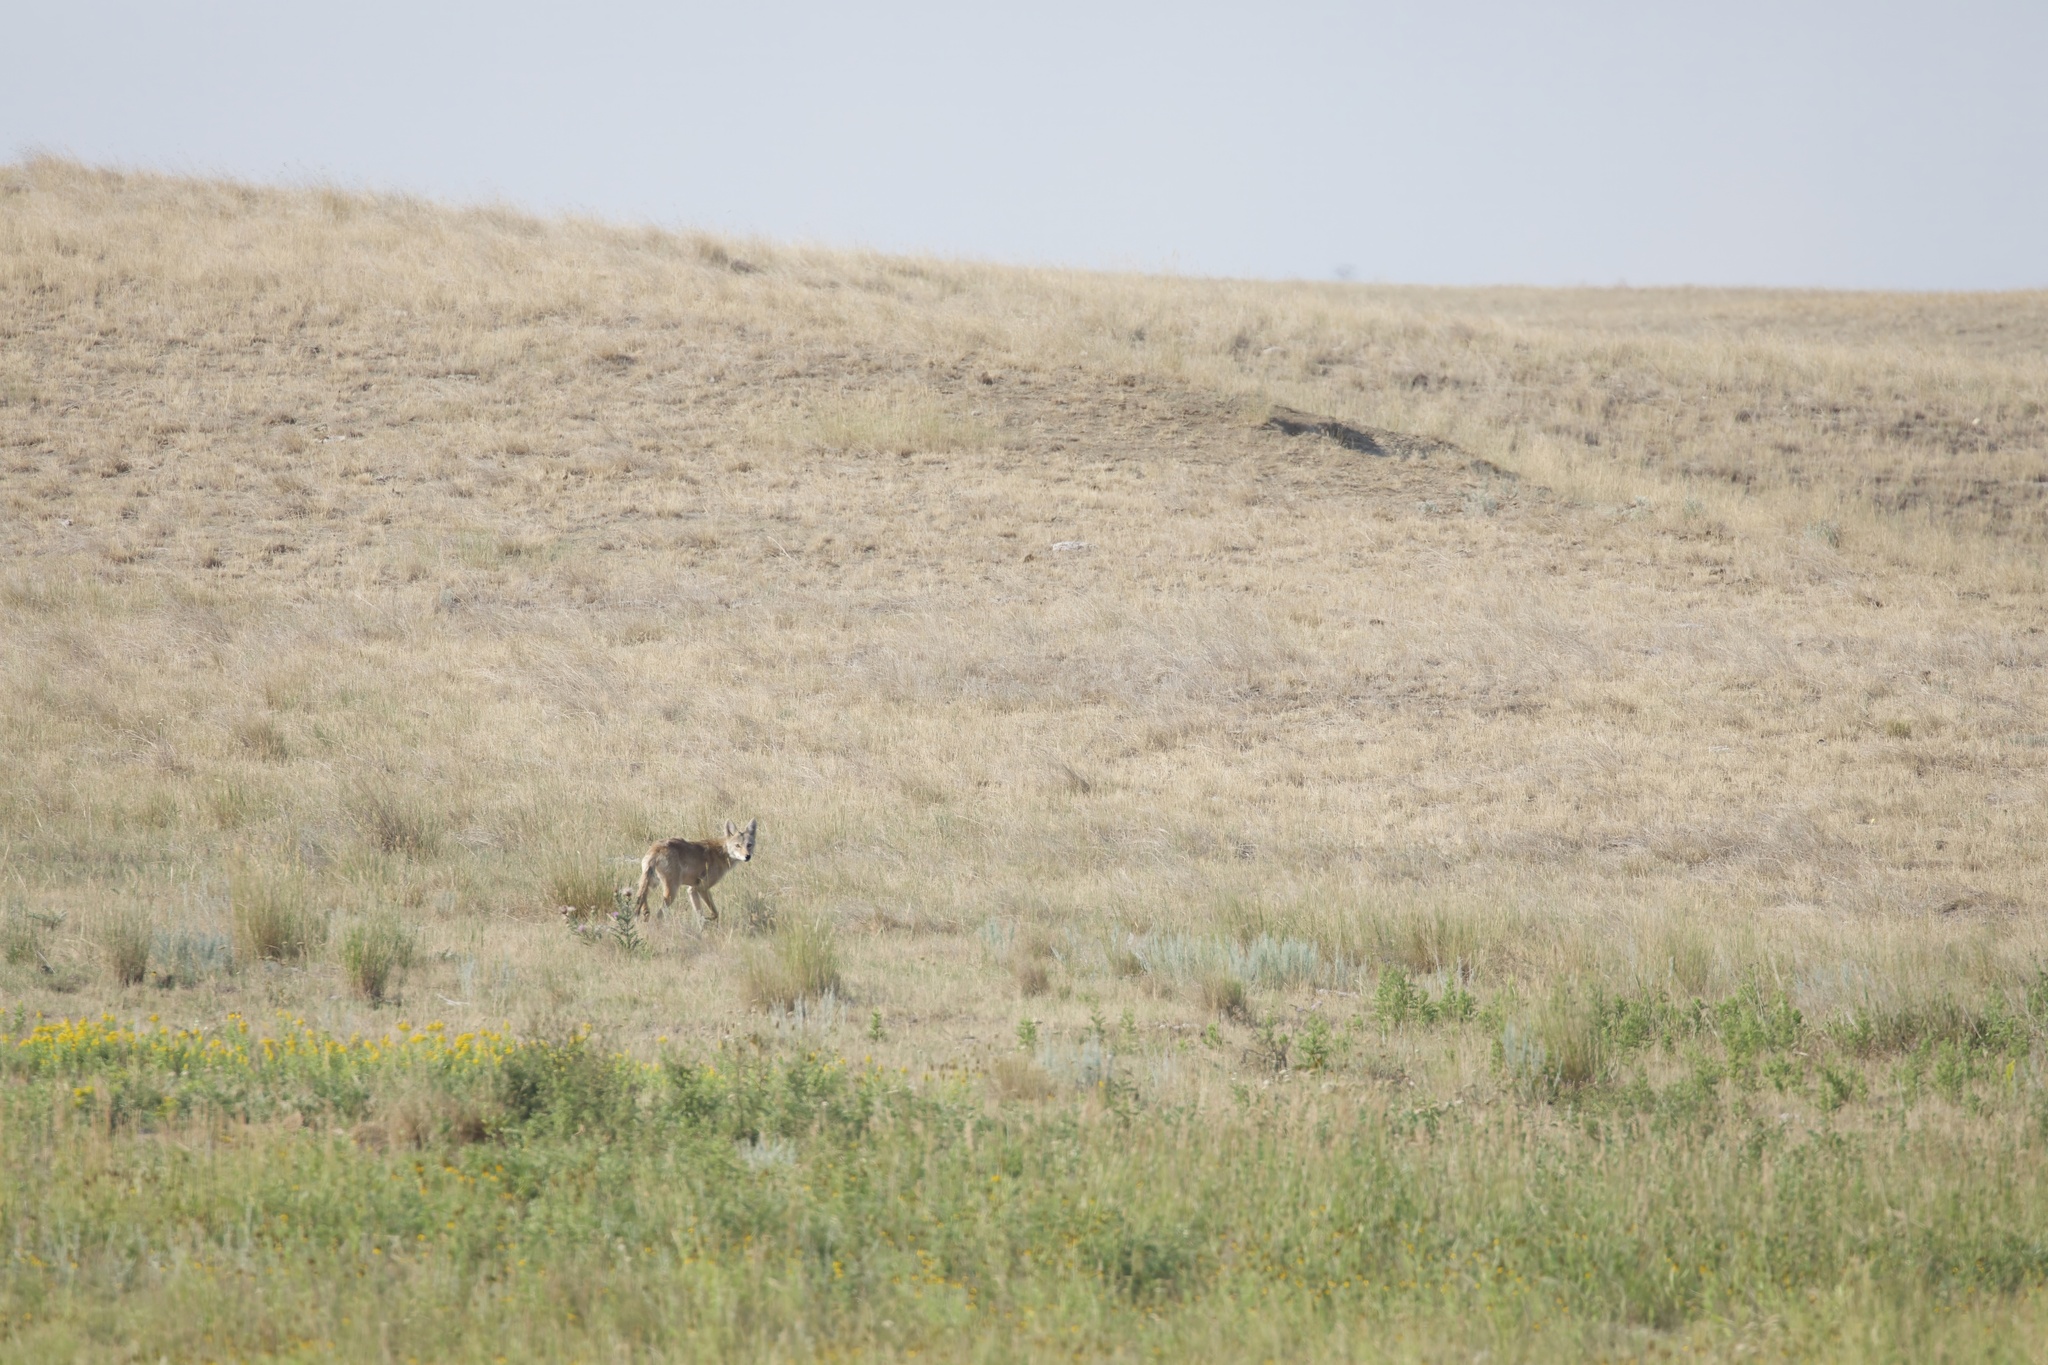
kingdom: Animalia
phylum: Chordata
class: Mammalia
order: Carnivora
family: Canidae
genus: Canis
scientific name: Canis latrans
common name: Coyote
